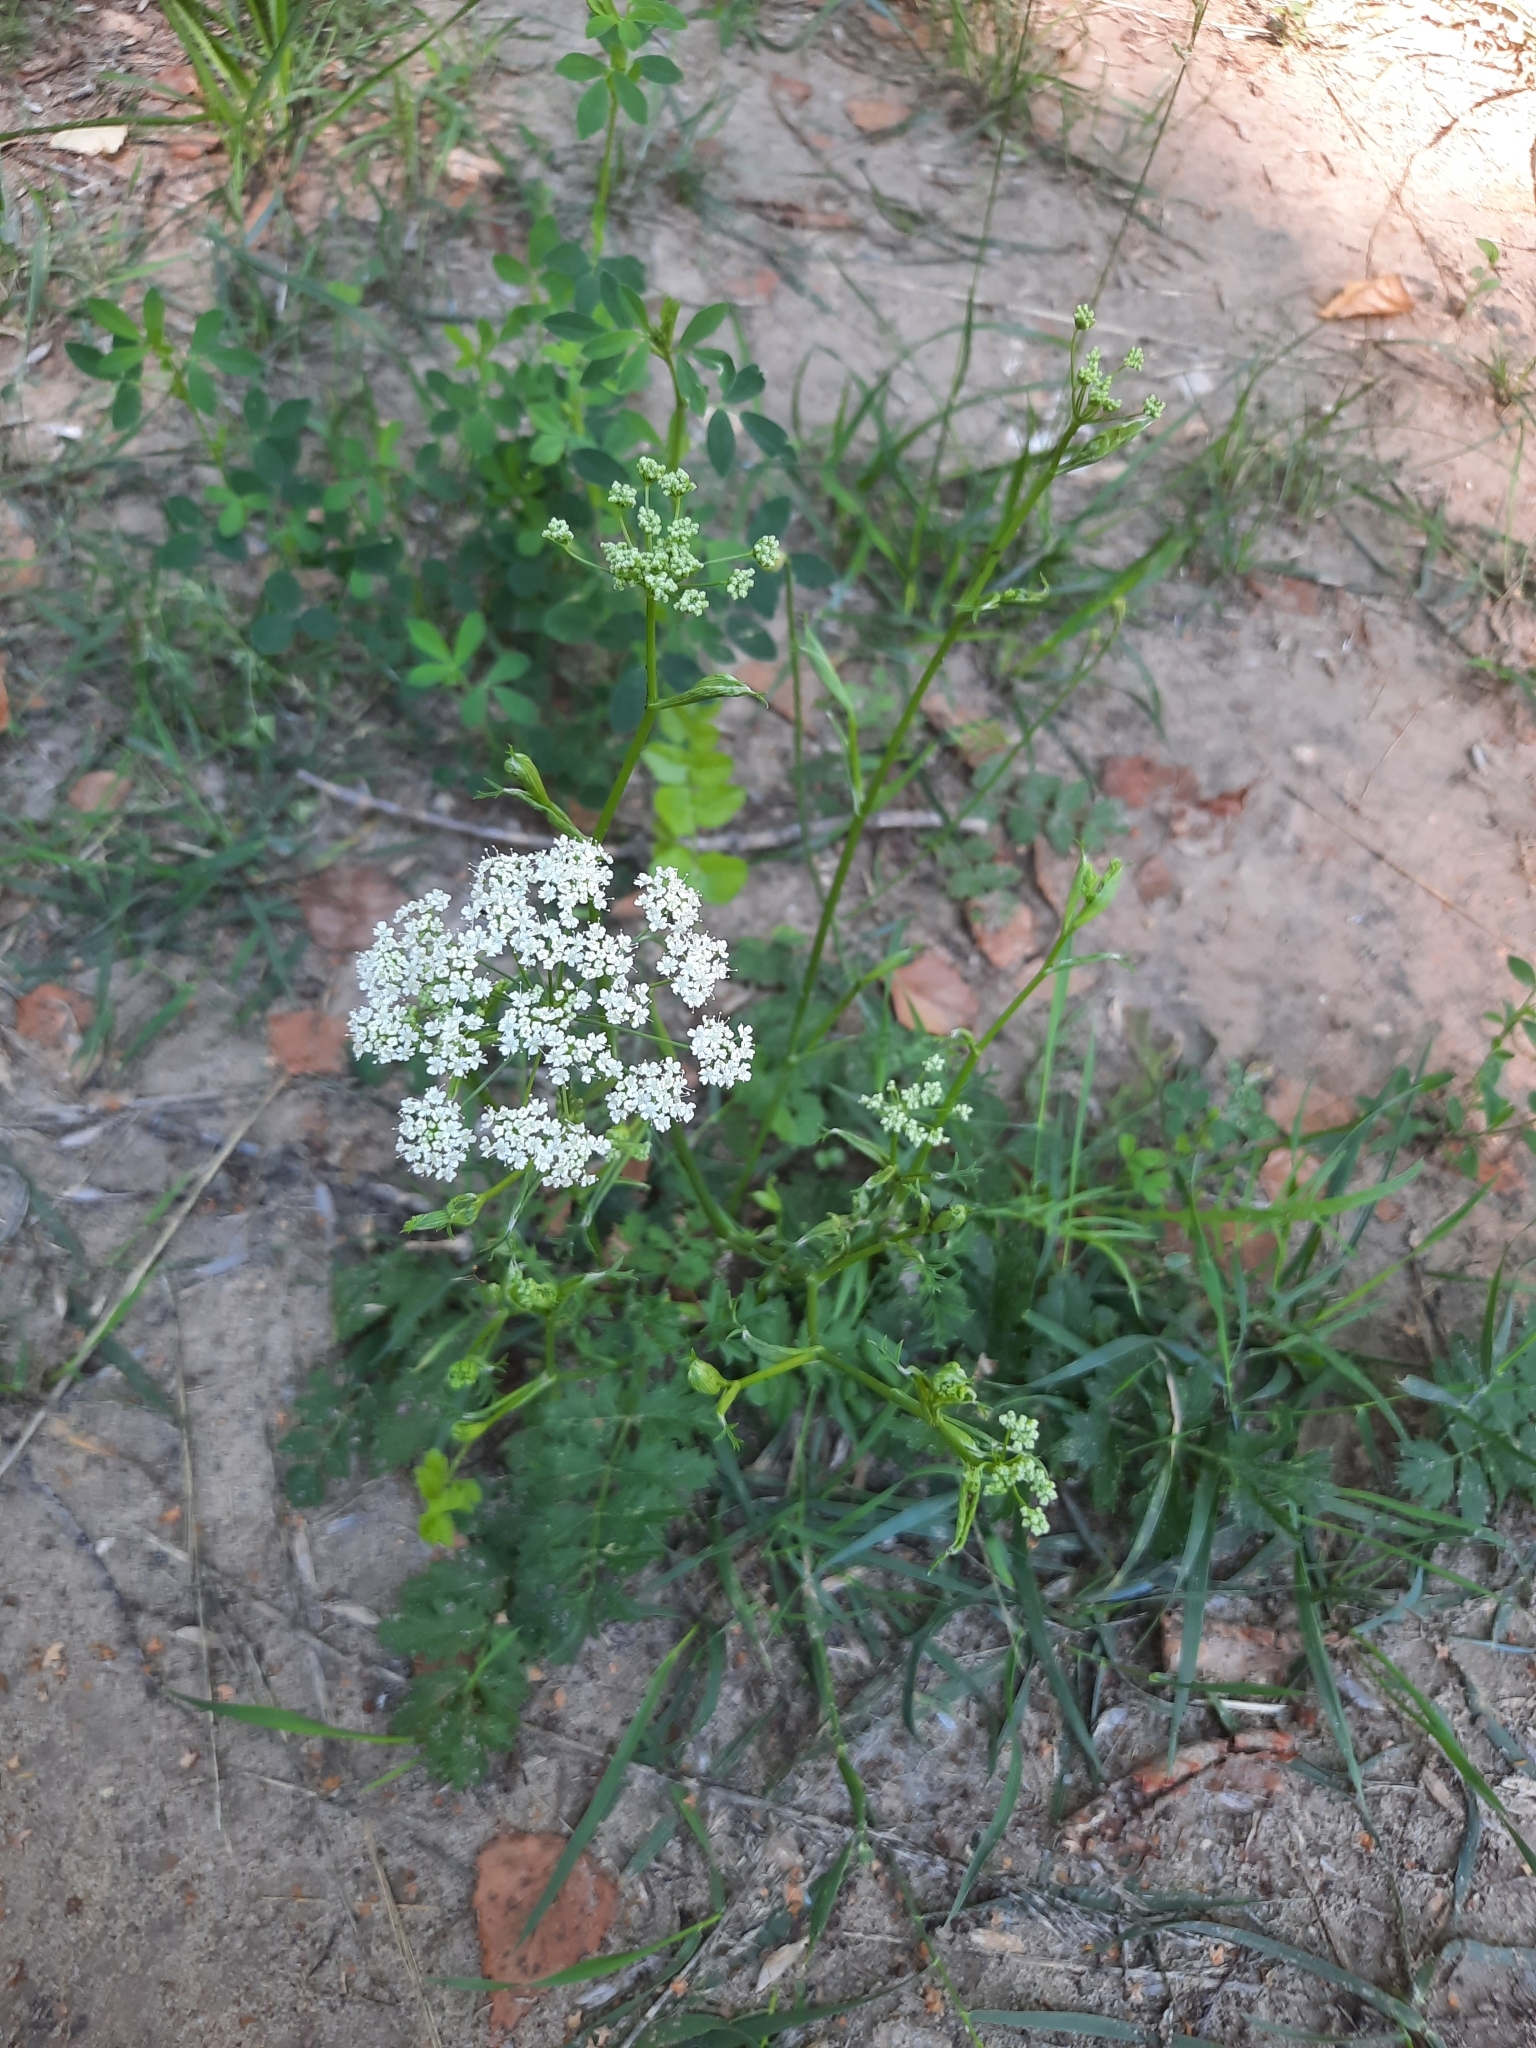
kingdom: Plantae
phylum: Tracheophyta
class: Magnoliopsida
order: Apiales
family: Apiaceae
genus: Pimpinella
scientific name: Pimpinella saxifraga
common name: Burnet-saxifrage
